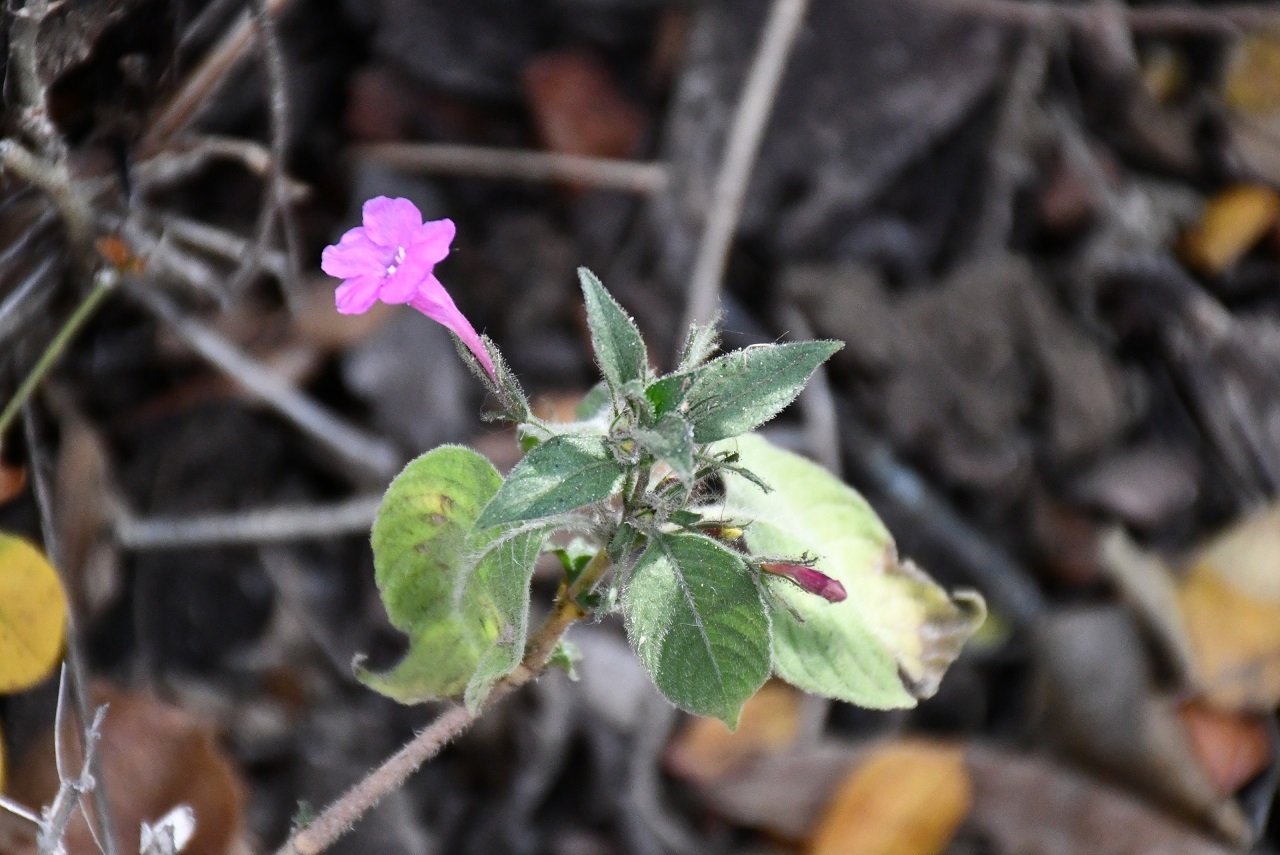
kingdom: Plantae
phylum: Tracheophyta
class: Magnoliopsida
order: Lamiales
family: Acanthaceae
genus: Ruellia
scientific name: Ruellia inundata
